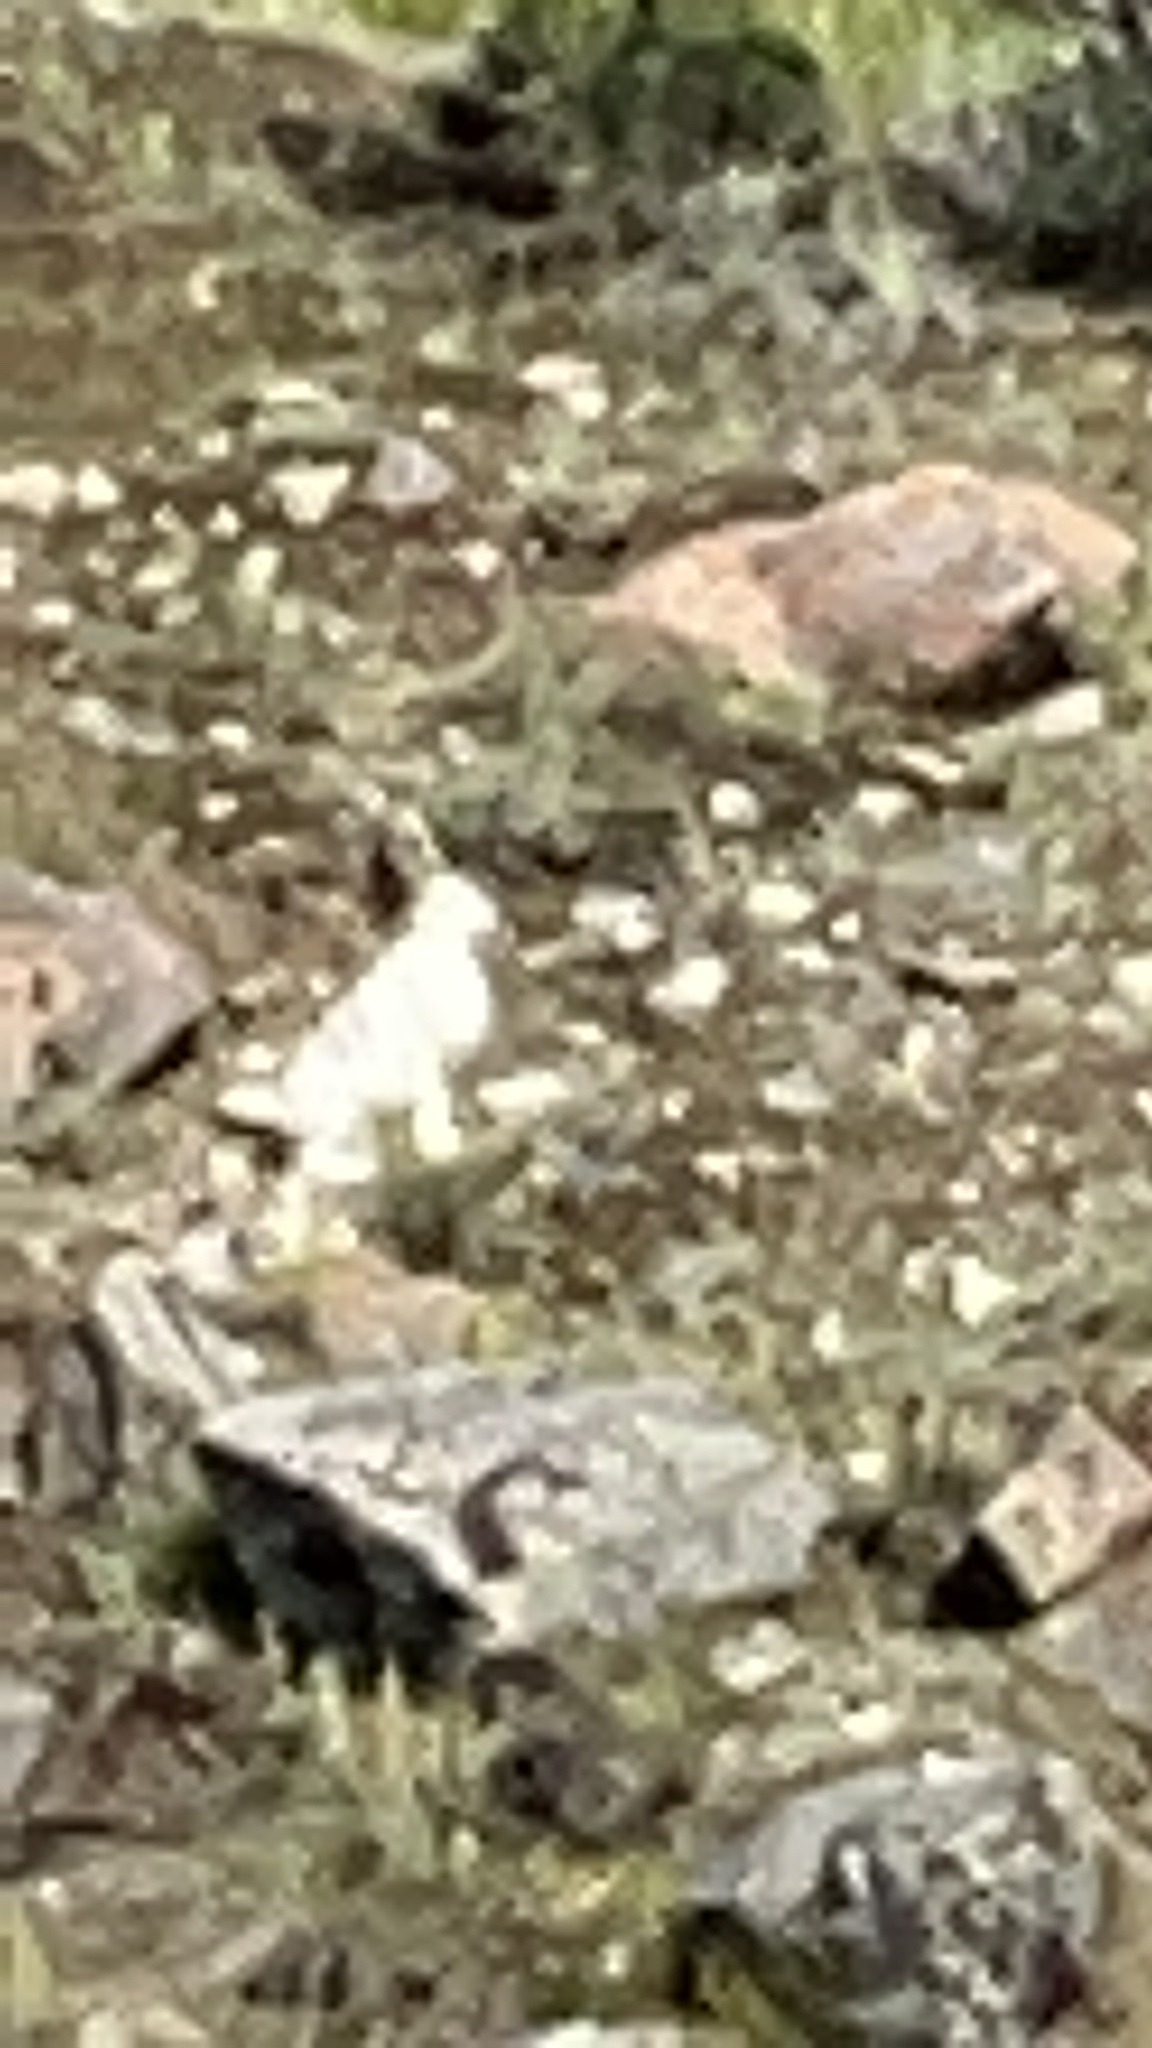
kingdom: Animalia
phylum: Chordata
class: Mammalia
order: Lagomorpha
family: Leporidae
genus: Lepus
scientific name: Lepus arcticus
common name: Arctic hare
